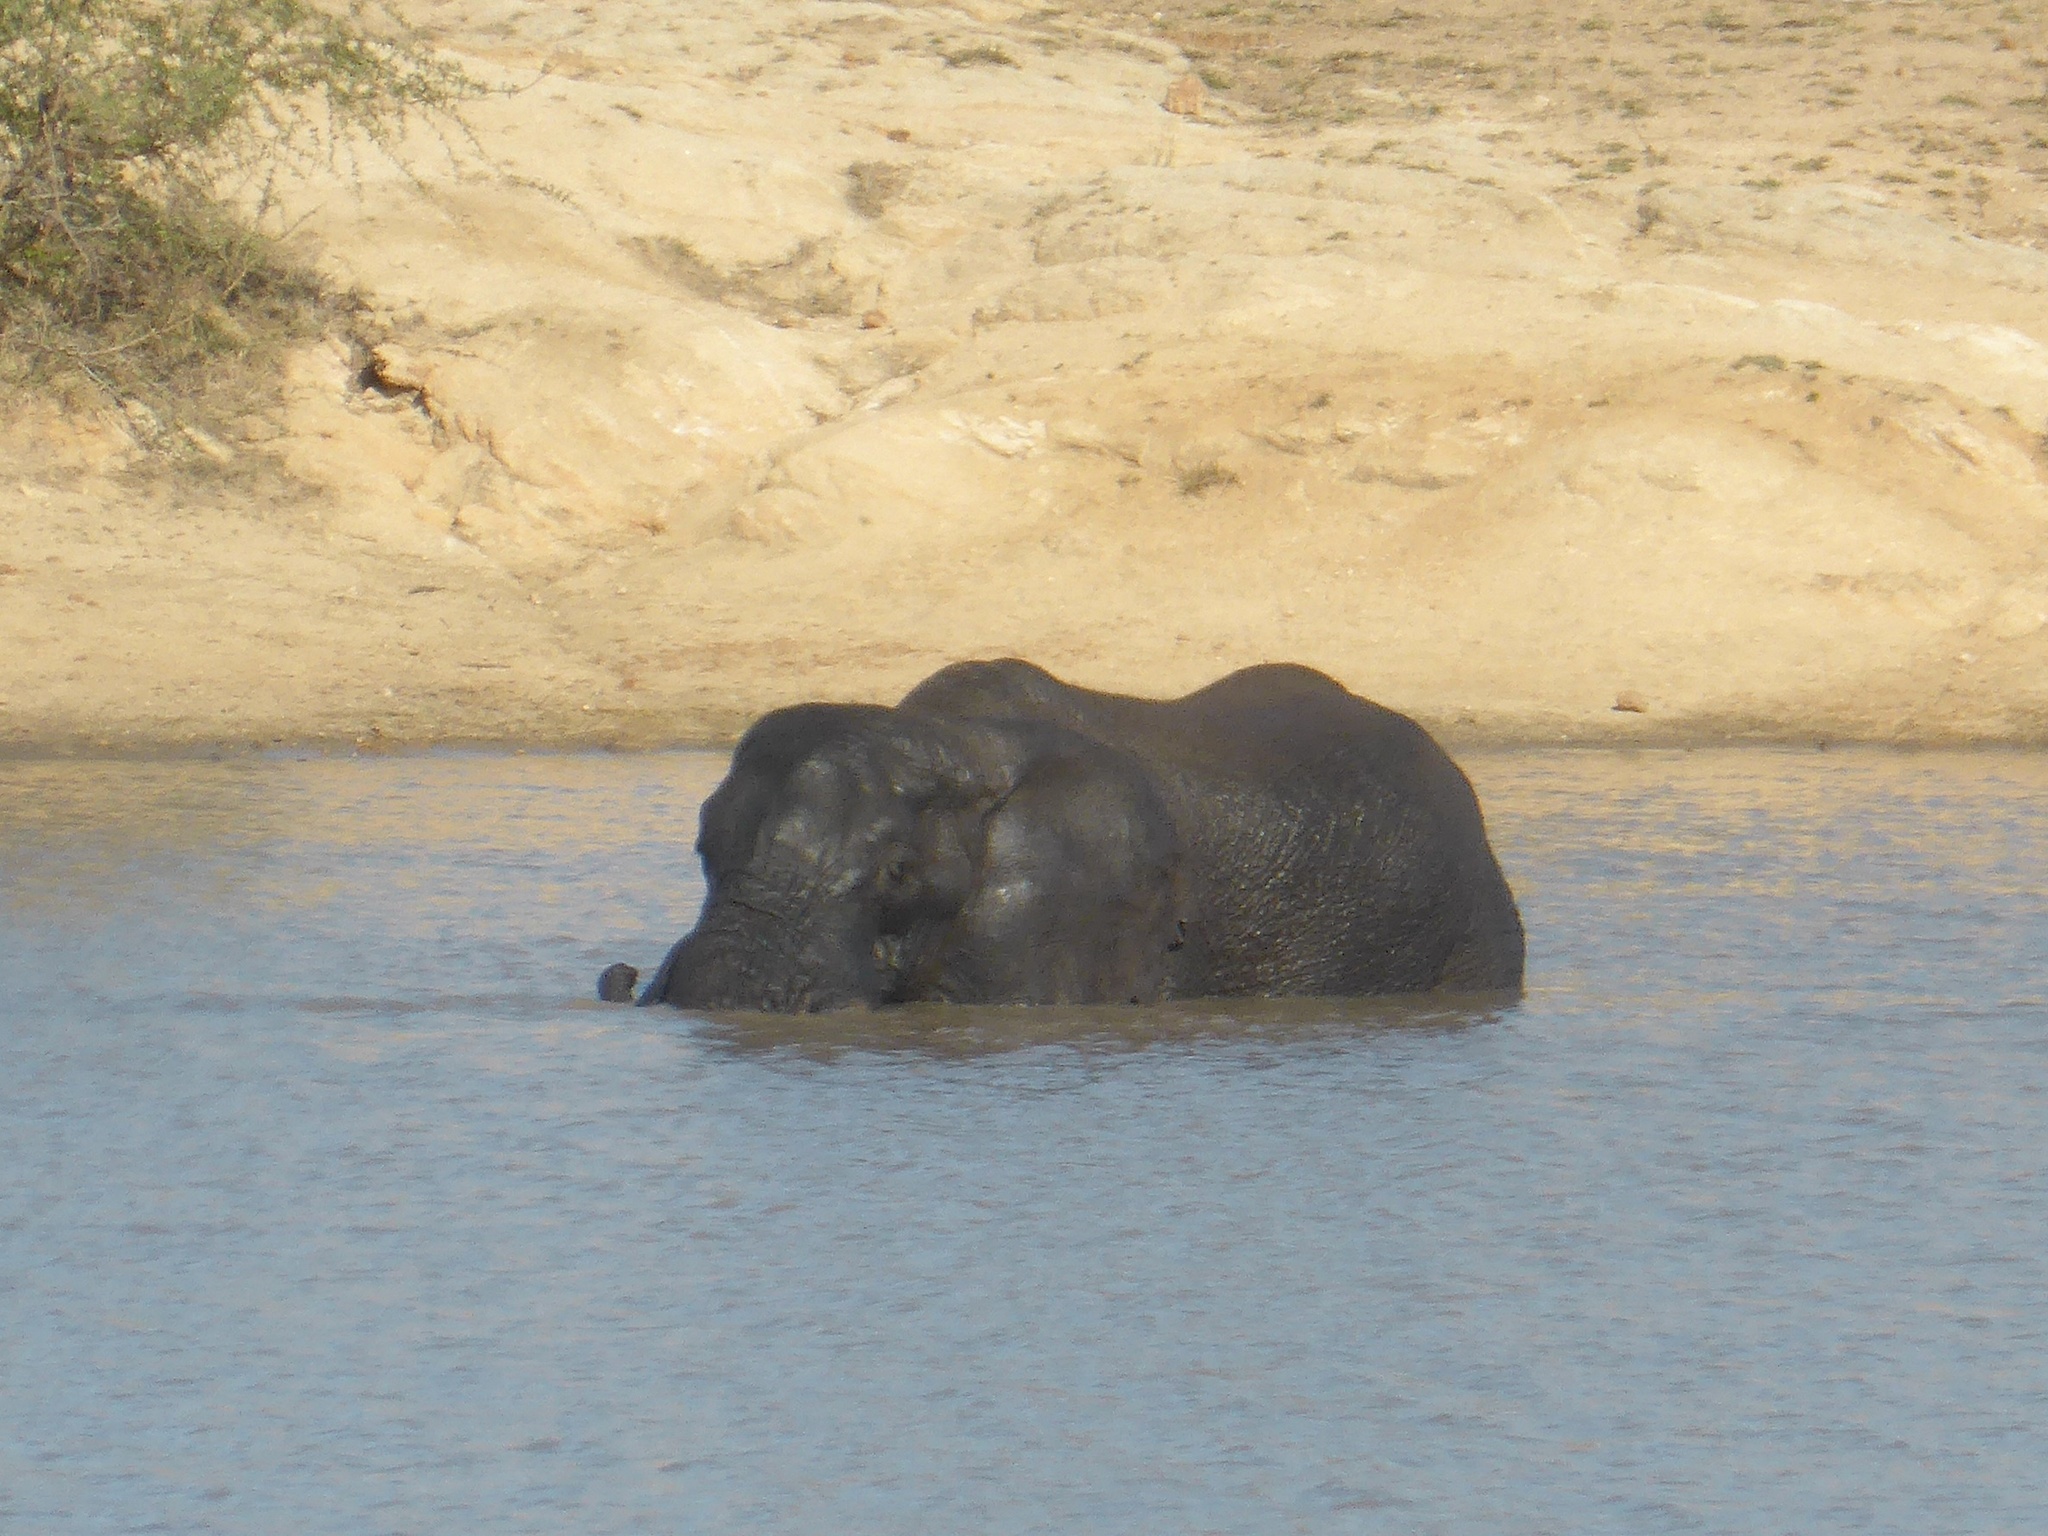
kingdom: Animalia
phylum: Chordata
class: Mammalia
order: Proboscidea
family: Elephantidae
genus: Loxodonta
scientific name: Loxodonta africana
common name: African elephant
